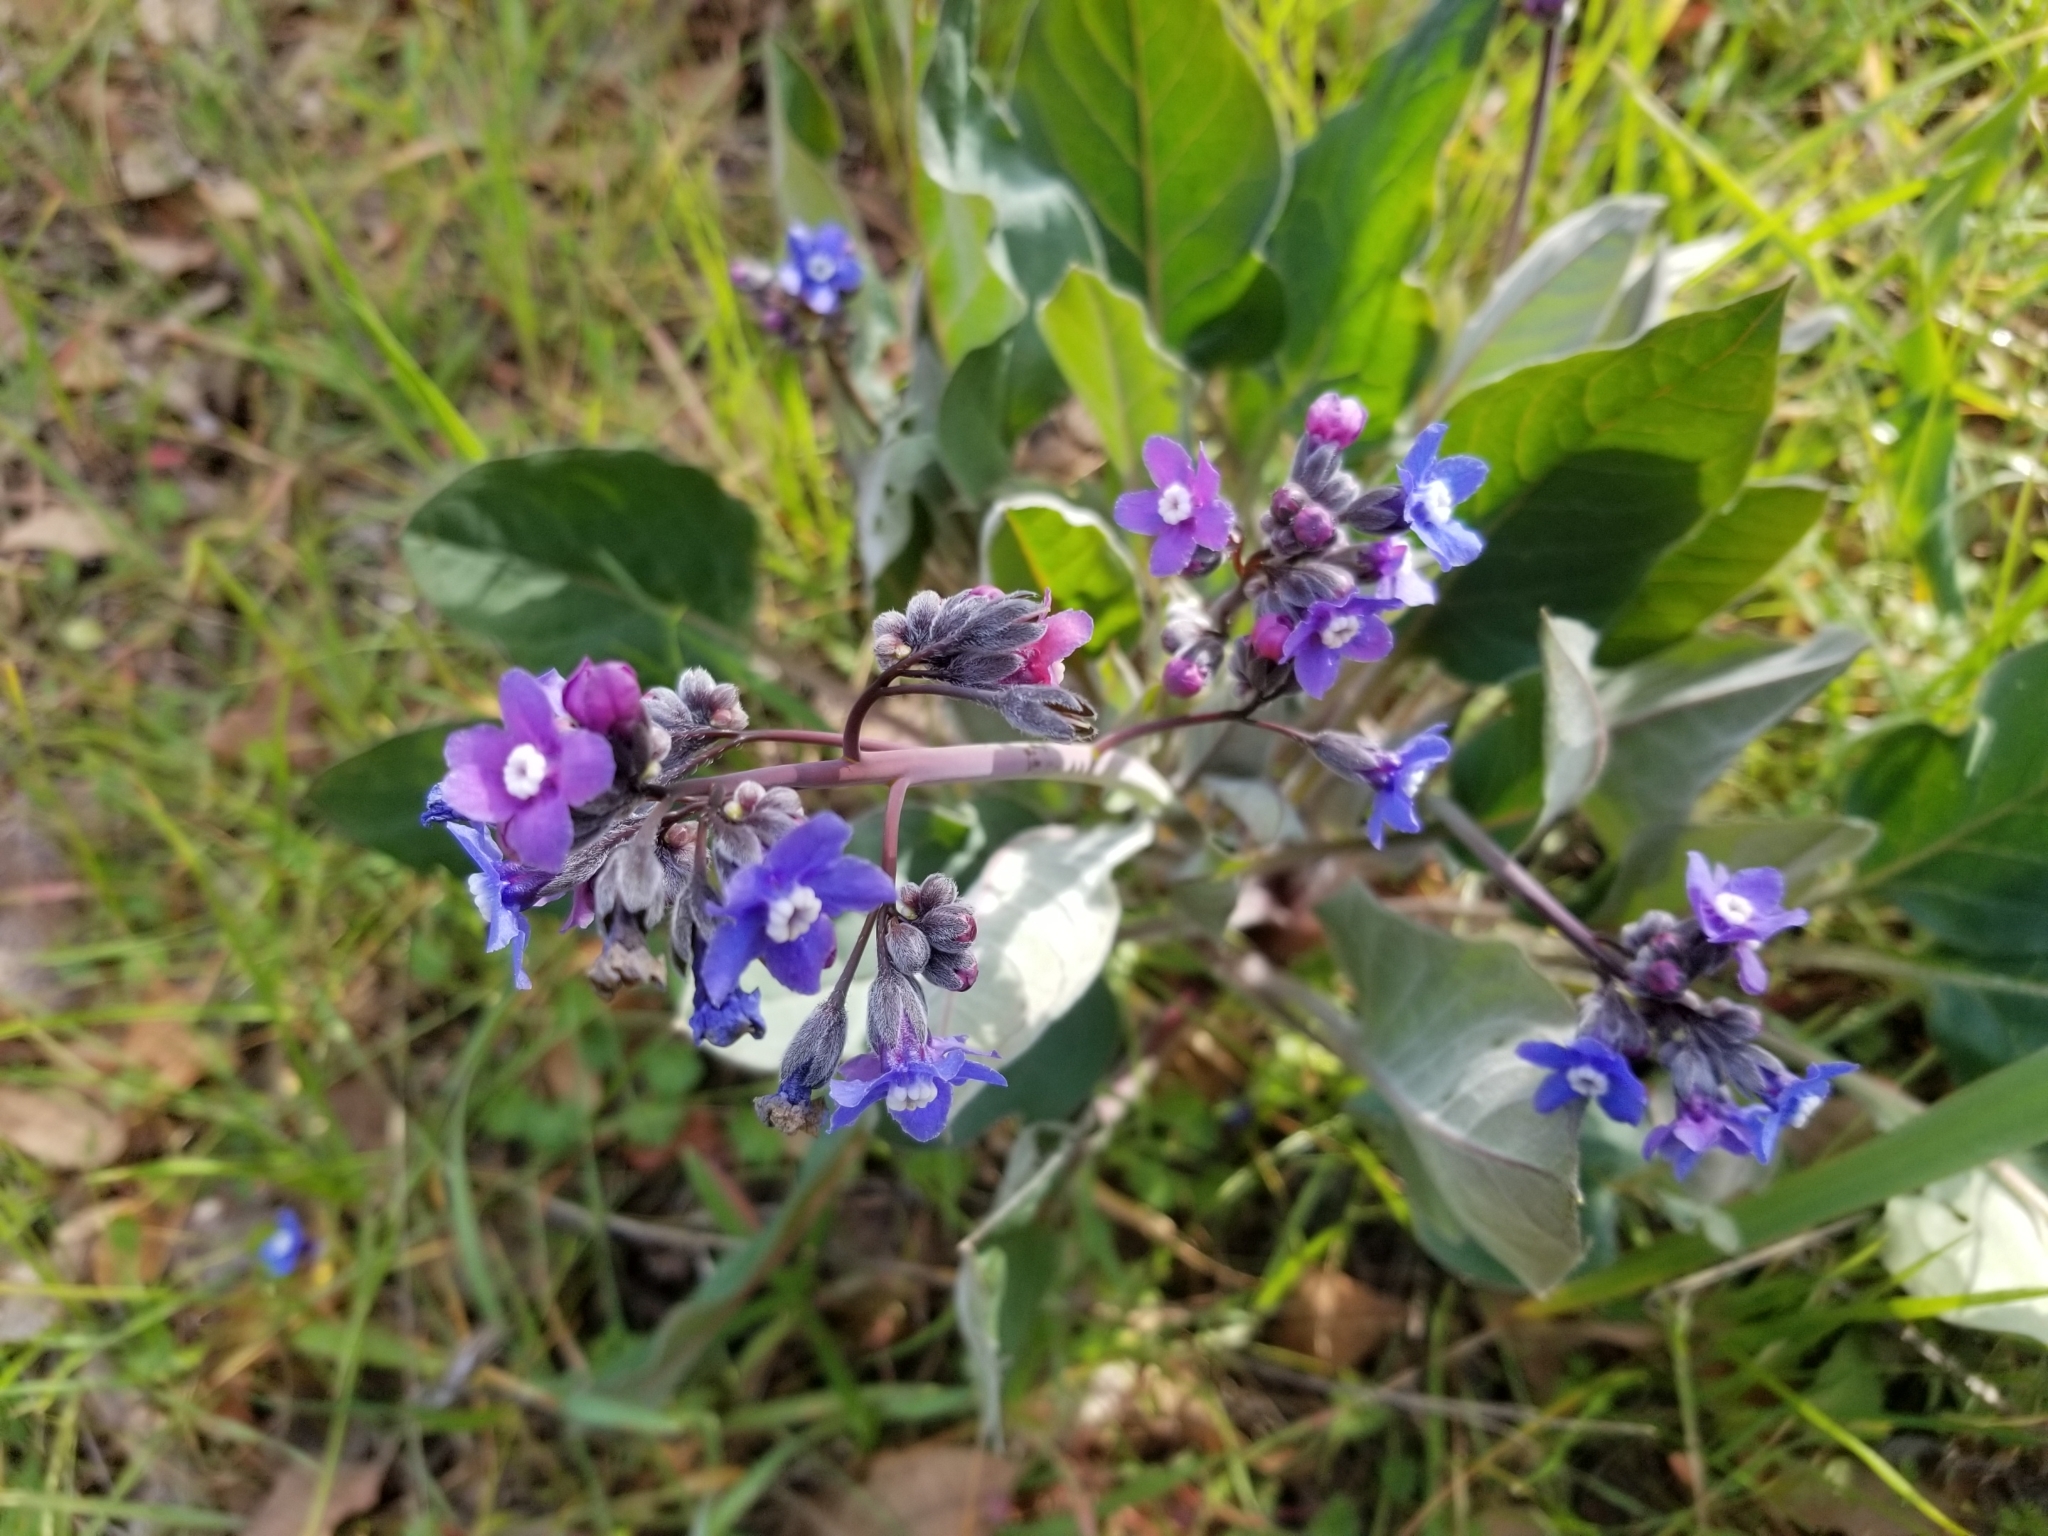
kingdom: Plantae
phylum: Tracheophyta
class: Magnoliopsida
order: Boraginales
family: Boraginaceae
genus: Adelinia
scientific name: Adelinia grande
